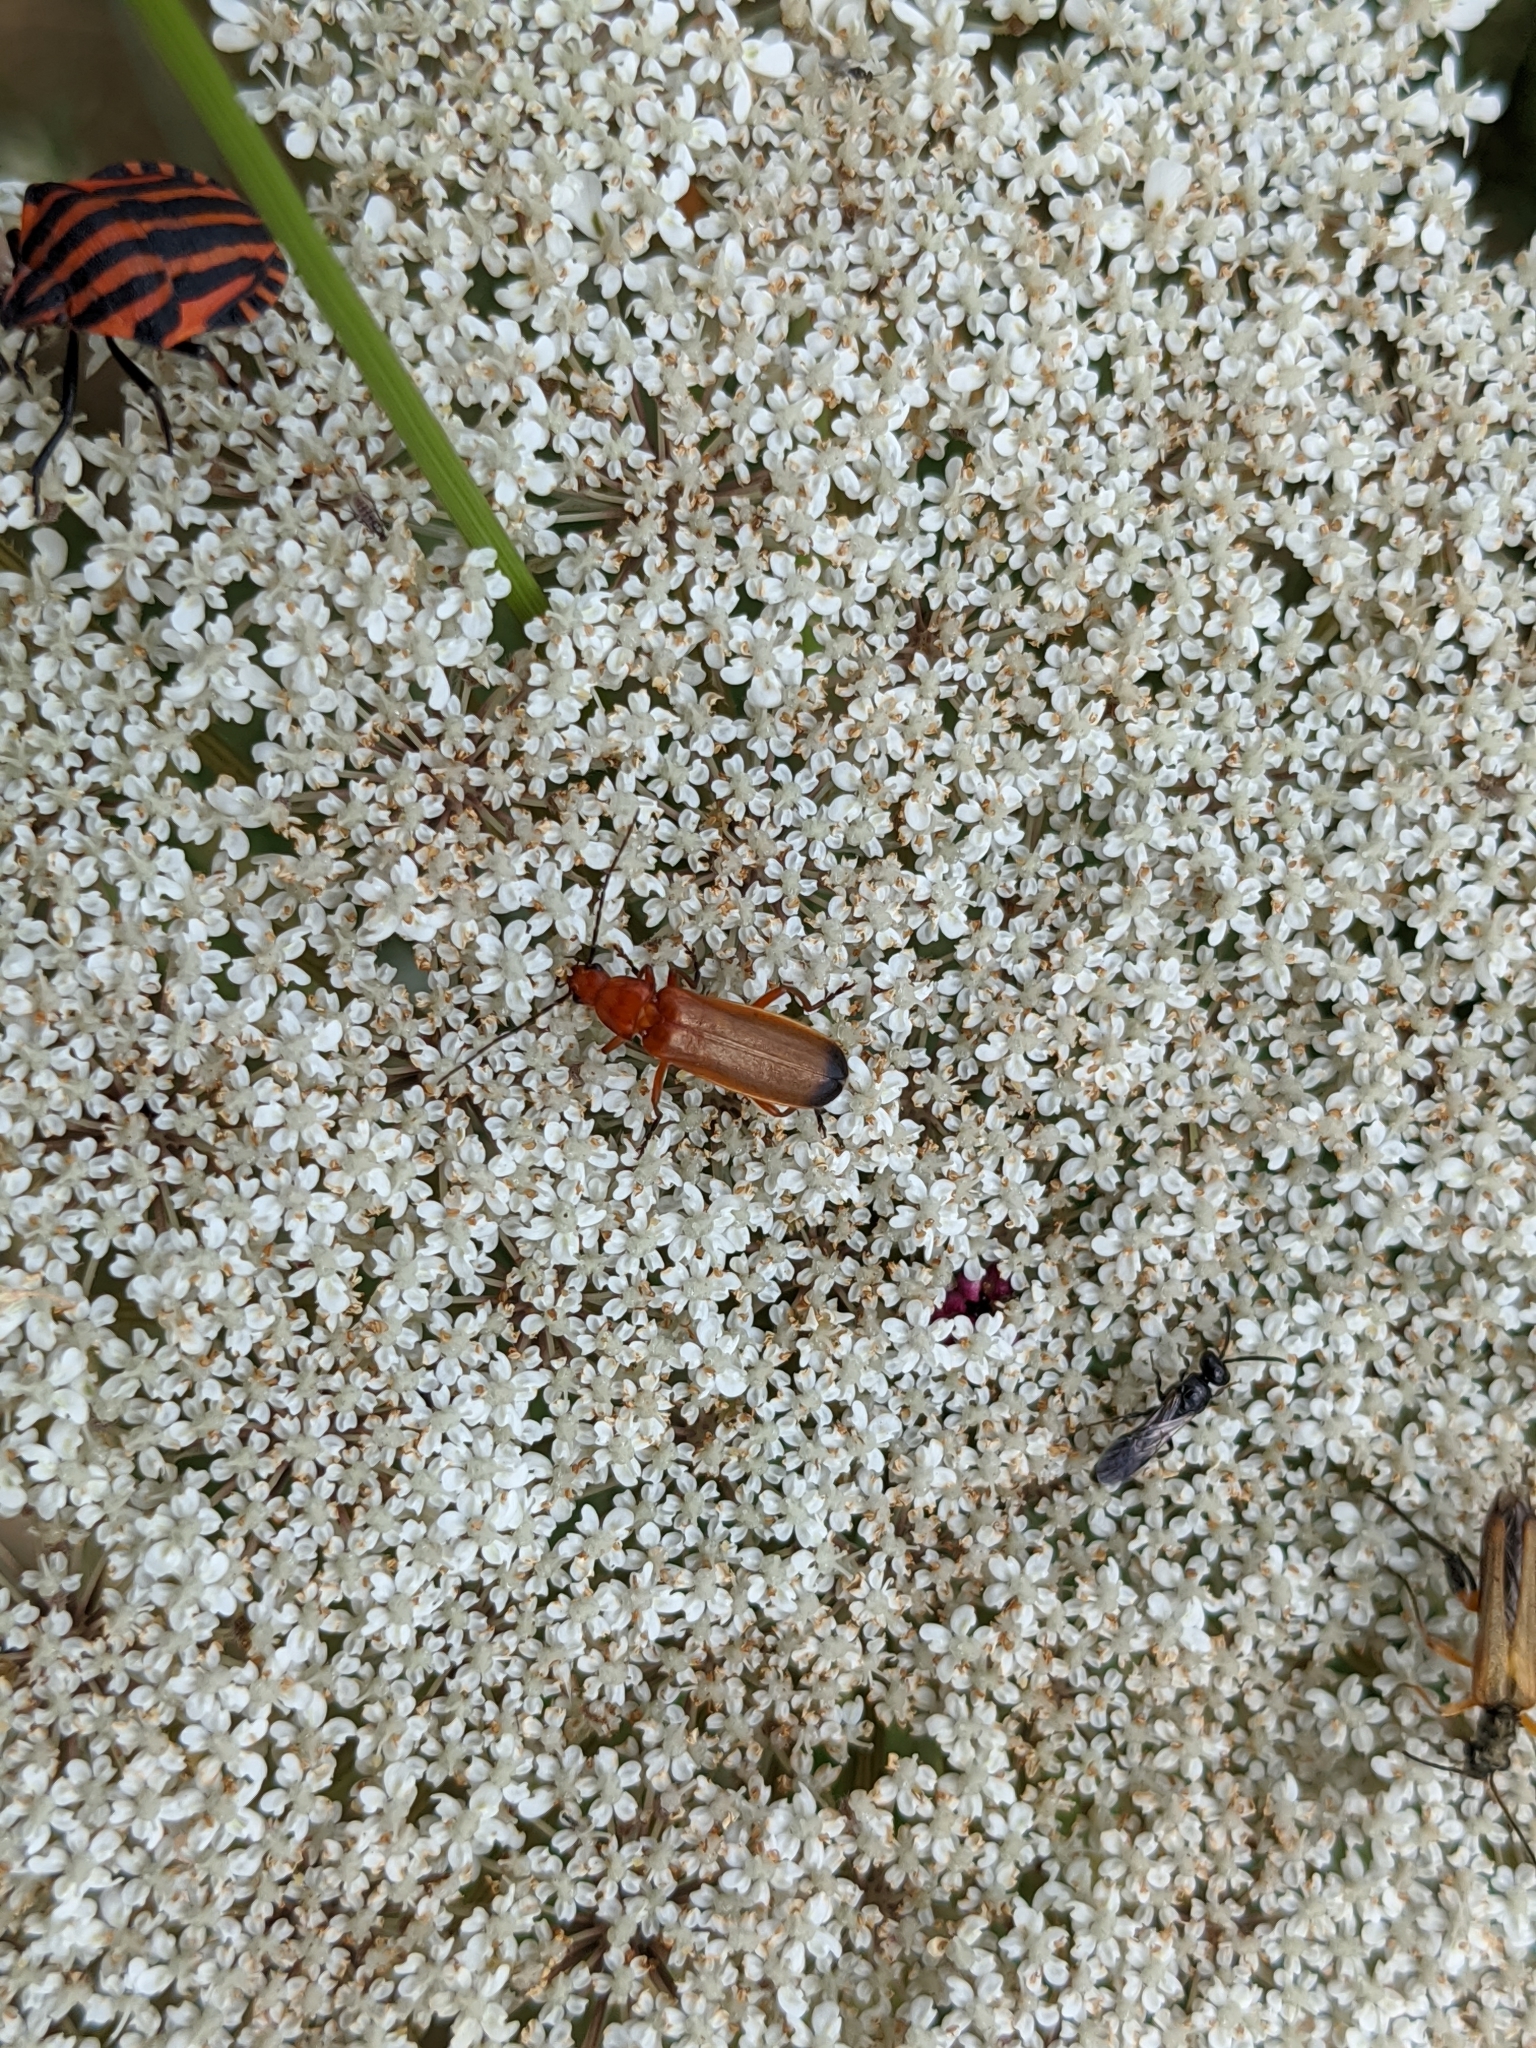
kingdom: Animalia
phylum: Arthropoda
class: Insecta
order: Coleoptera
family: Cantharidae
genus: Rhagonycha
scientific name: Rhagonycha fulva
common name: Common red soldier beetle
